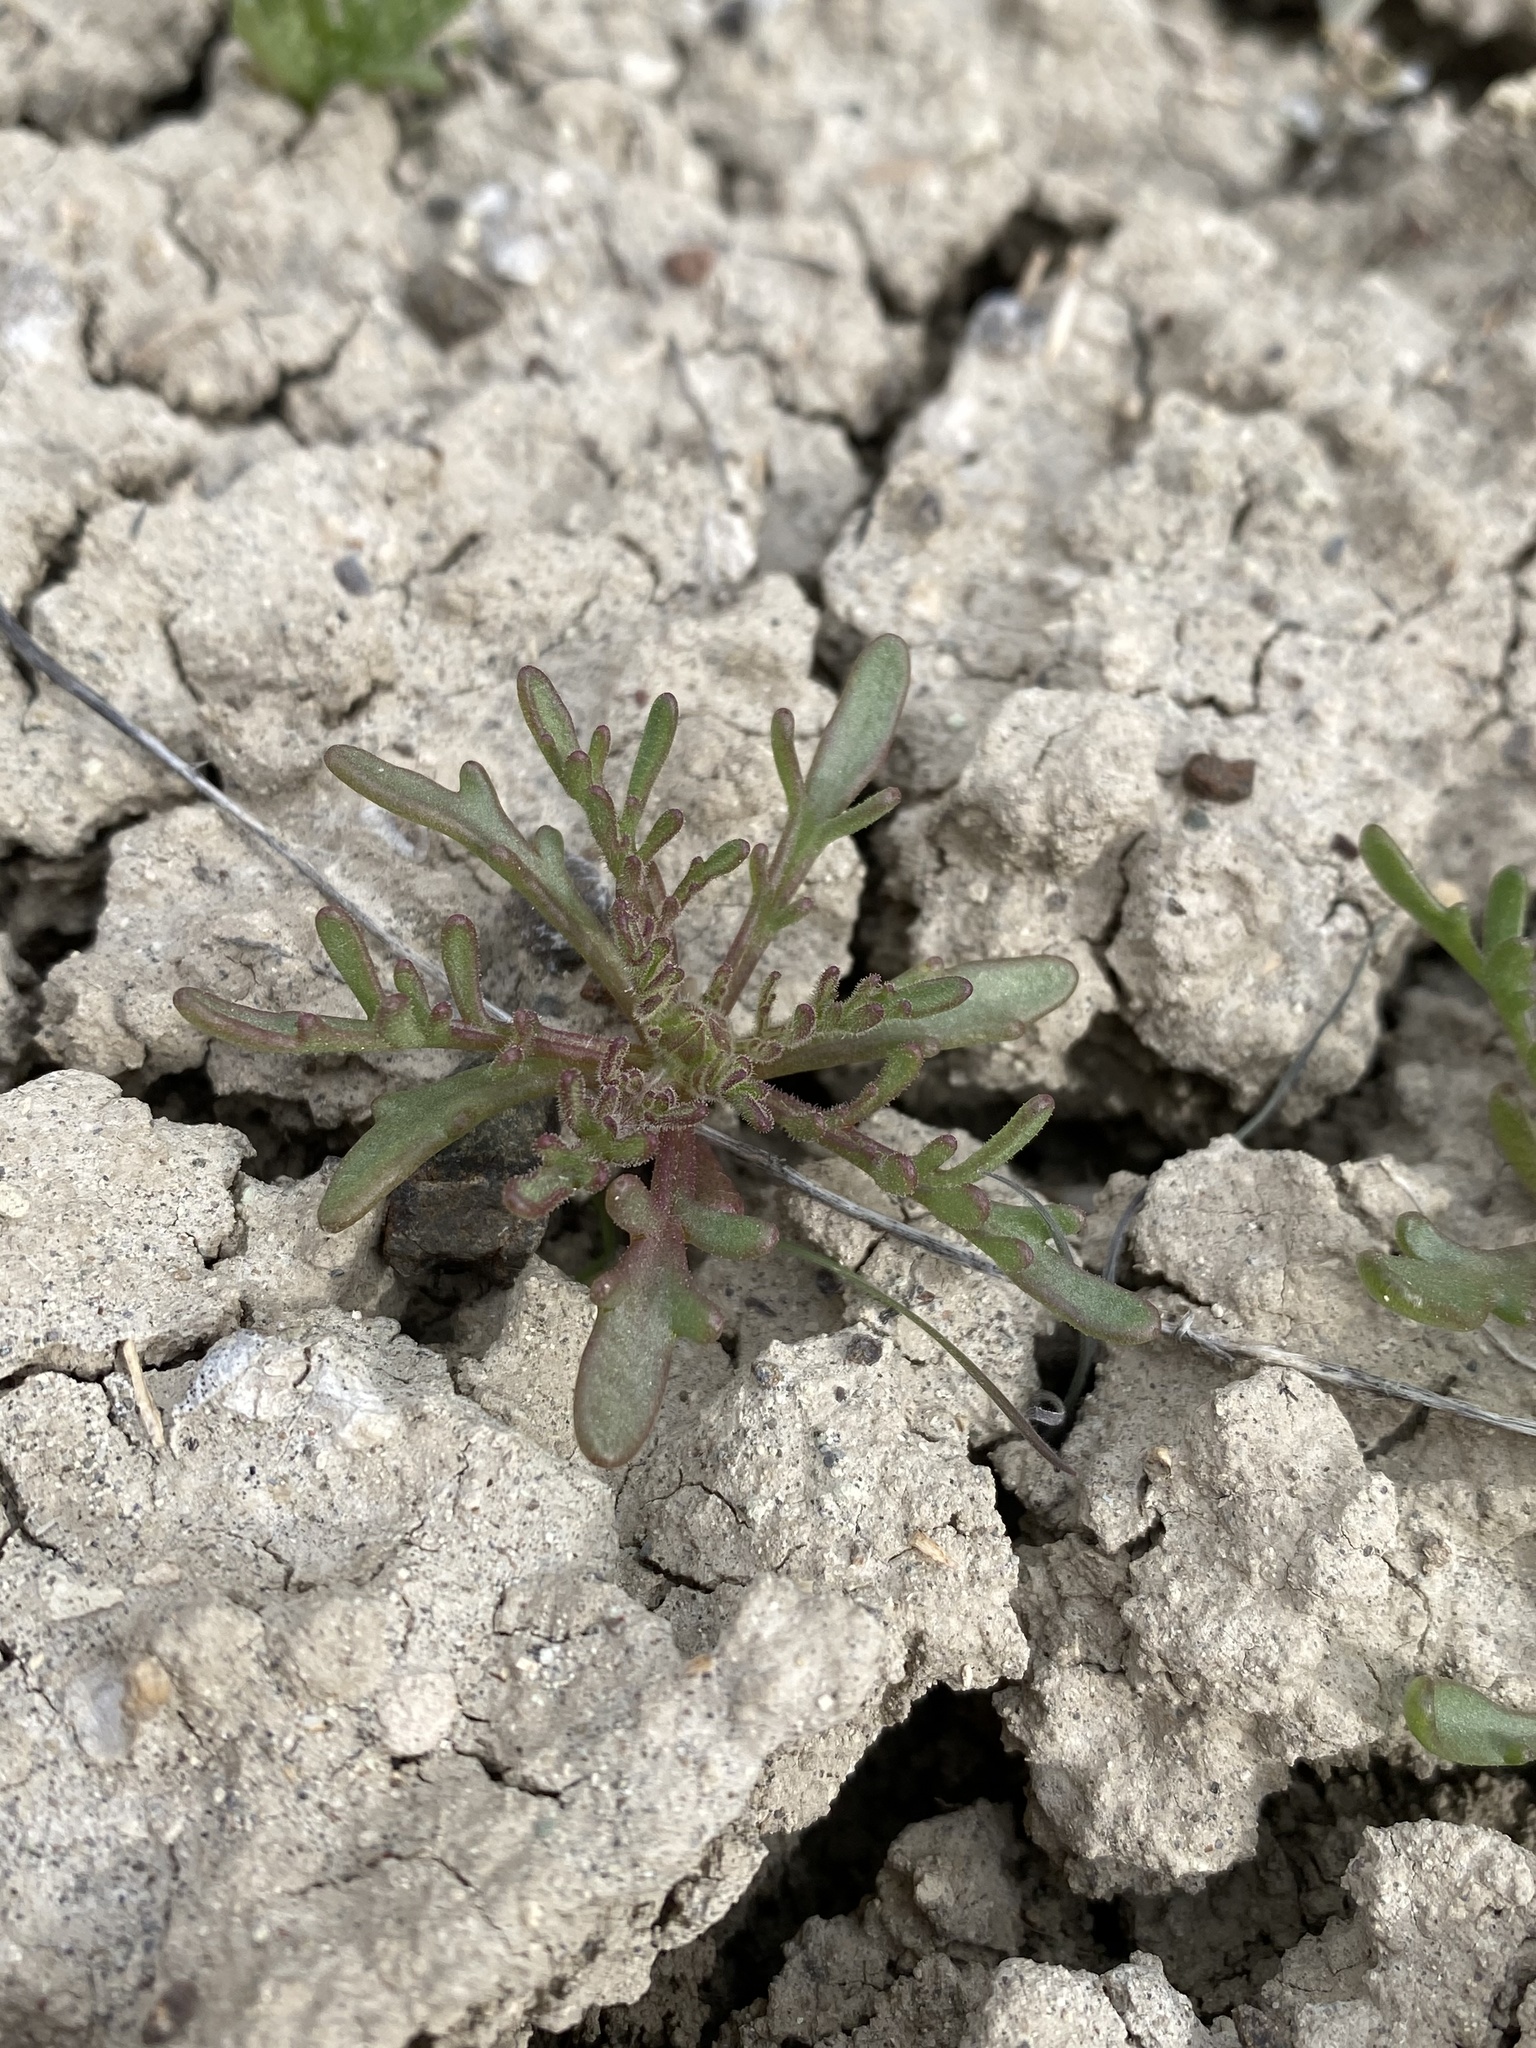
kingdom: Plantae
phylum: Tracheophyta
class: Magnoliopsida
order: Asterales
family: Asteraceae
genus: Chaenactis
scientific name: Chaenactis nevii
